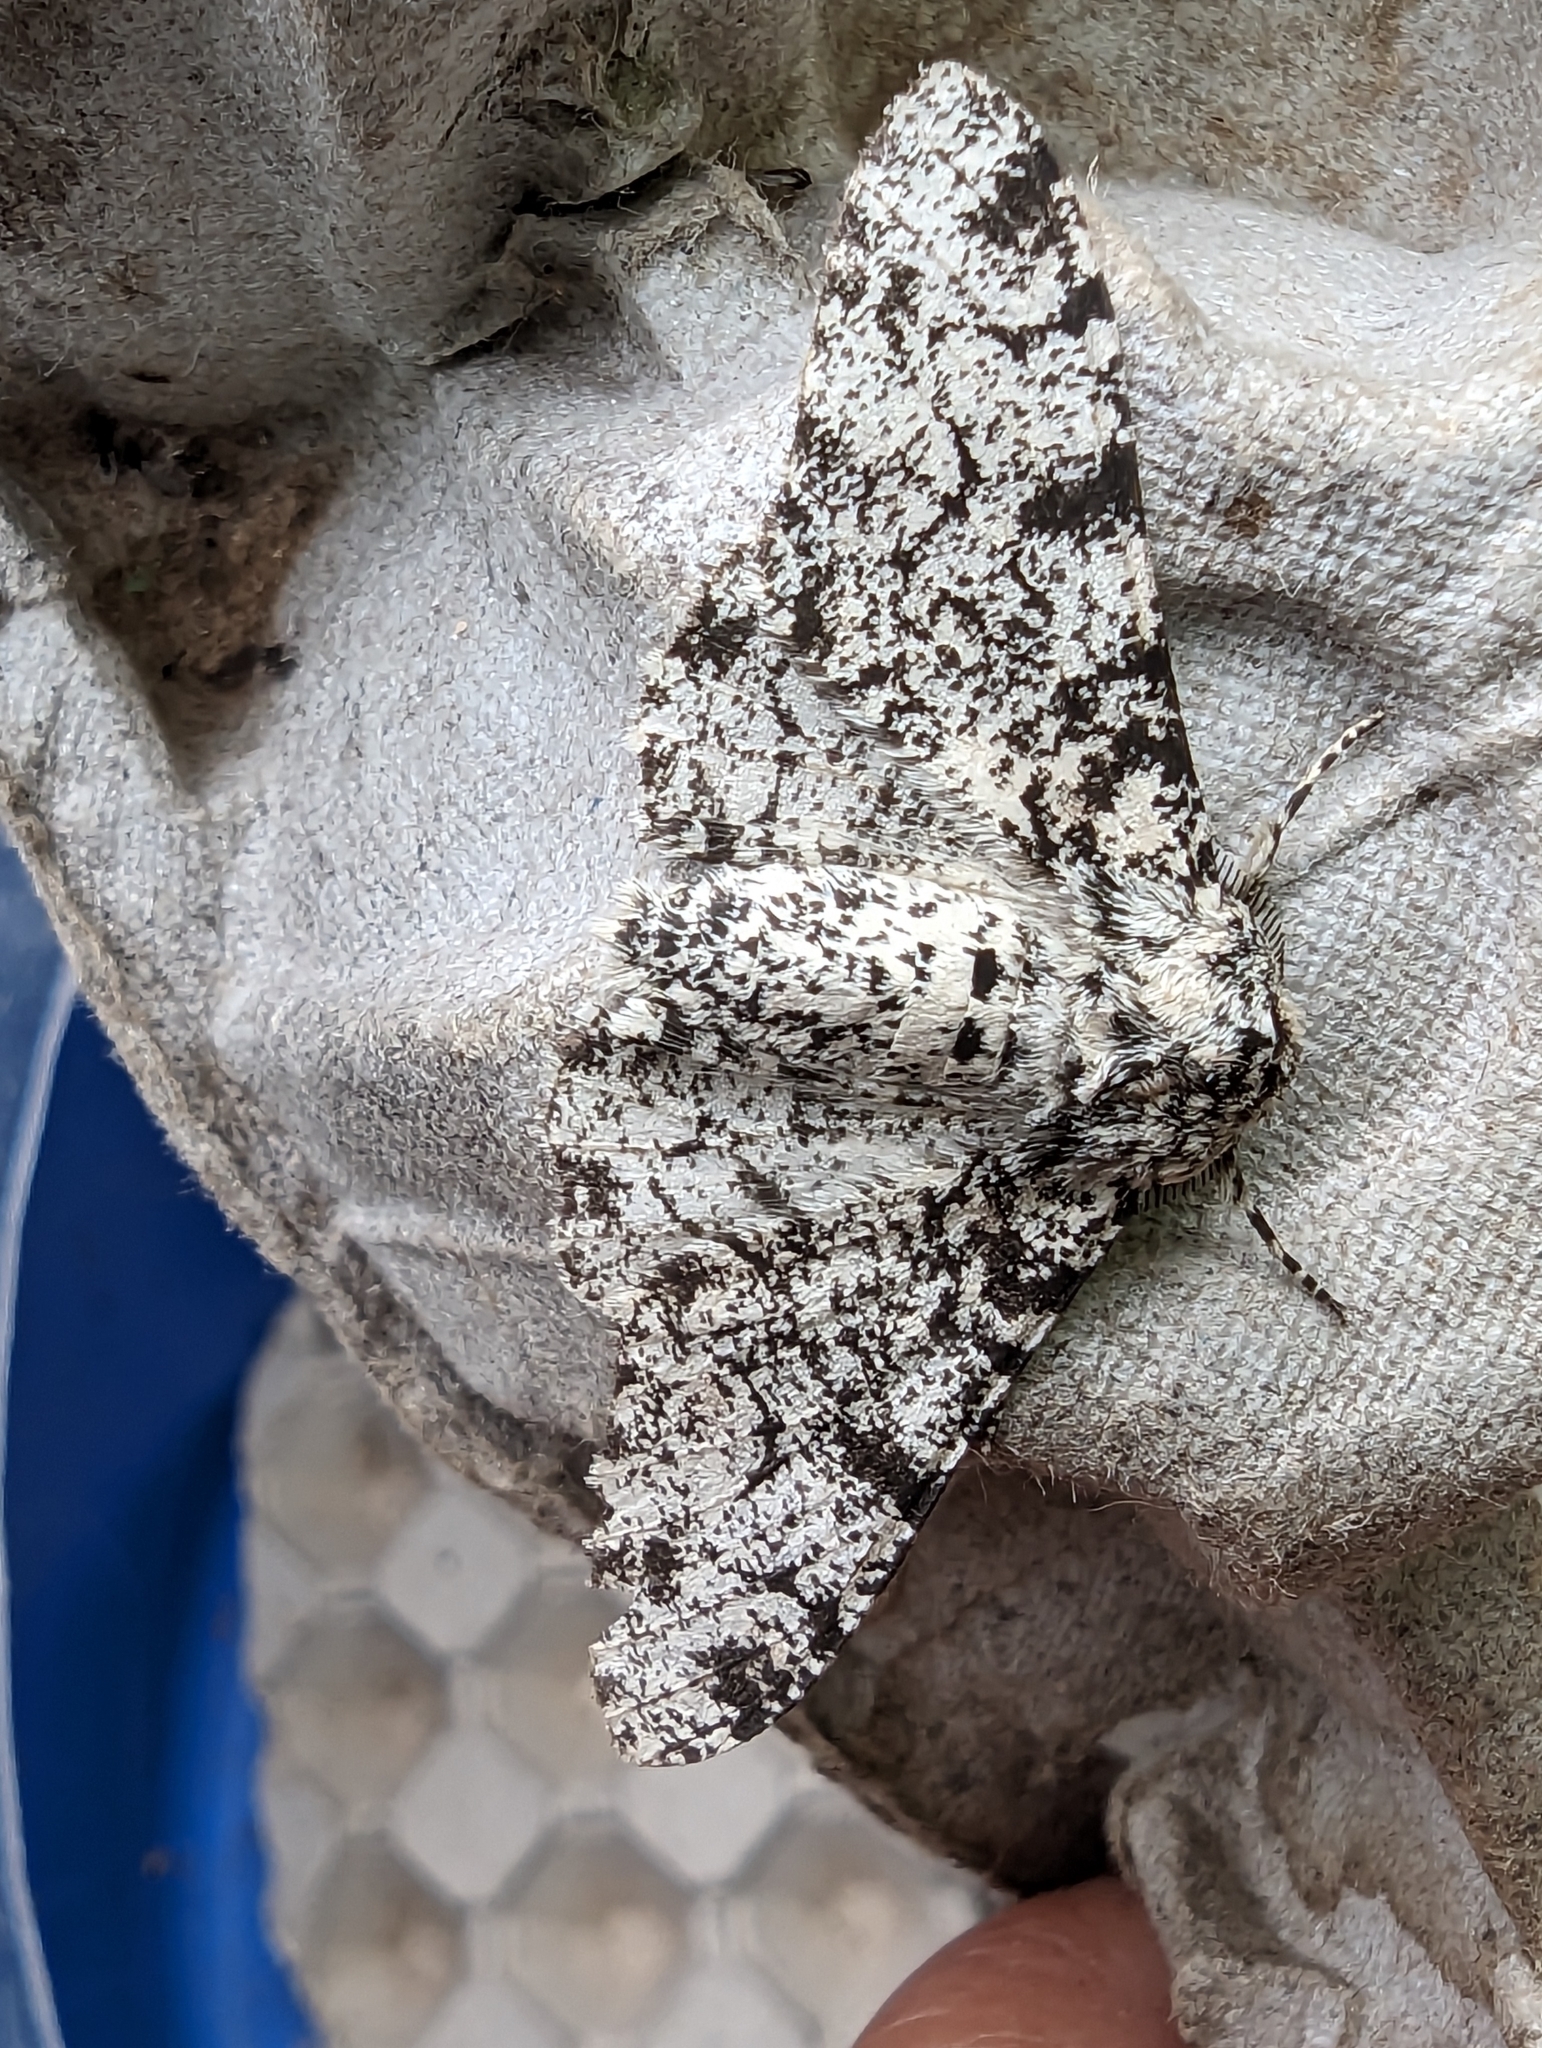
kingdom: Animalia
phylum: Arthropoda
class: Insecta
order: Lepidoptera
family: Geometridae
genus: Biston
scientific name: Biston betularia
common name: Peppered moth
